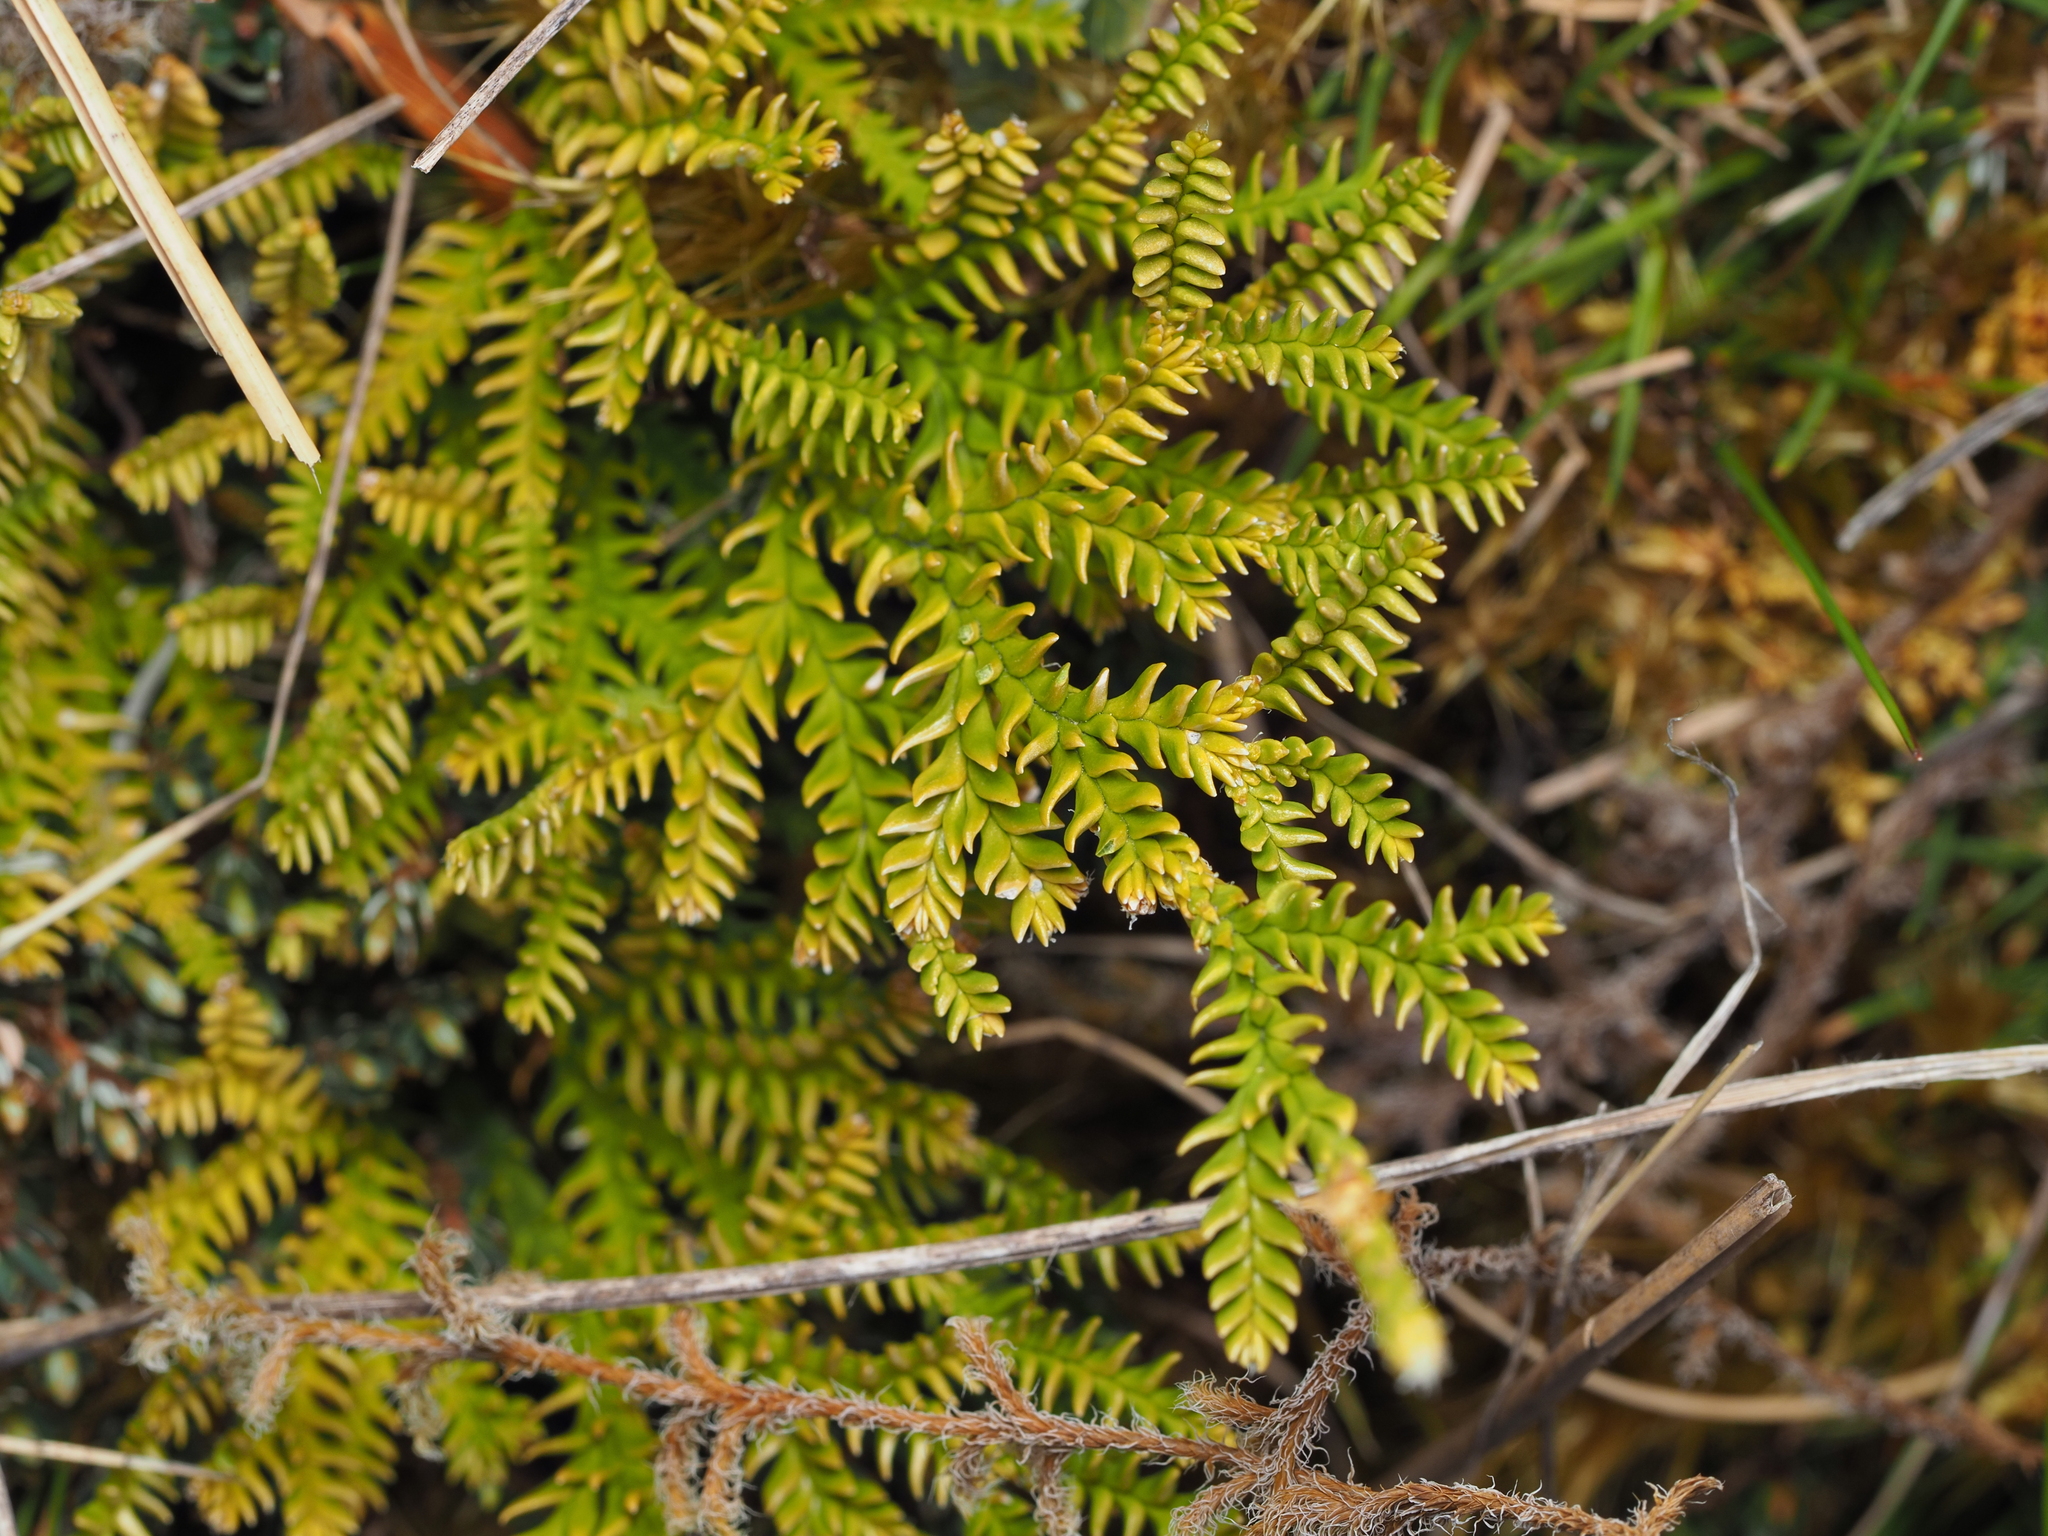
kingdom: Plantae
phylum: Tracheophyta
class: Lycopodiopsida
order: Lycopodiales
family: Lycopodiaceae
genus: Diphasium
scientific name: Diphasium scariosum
